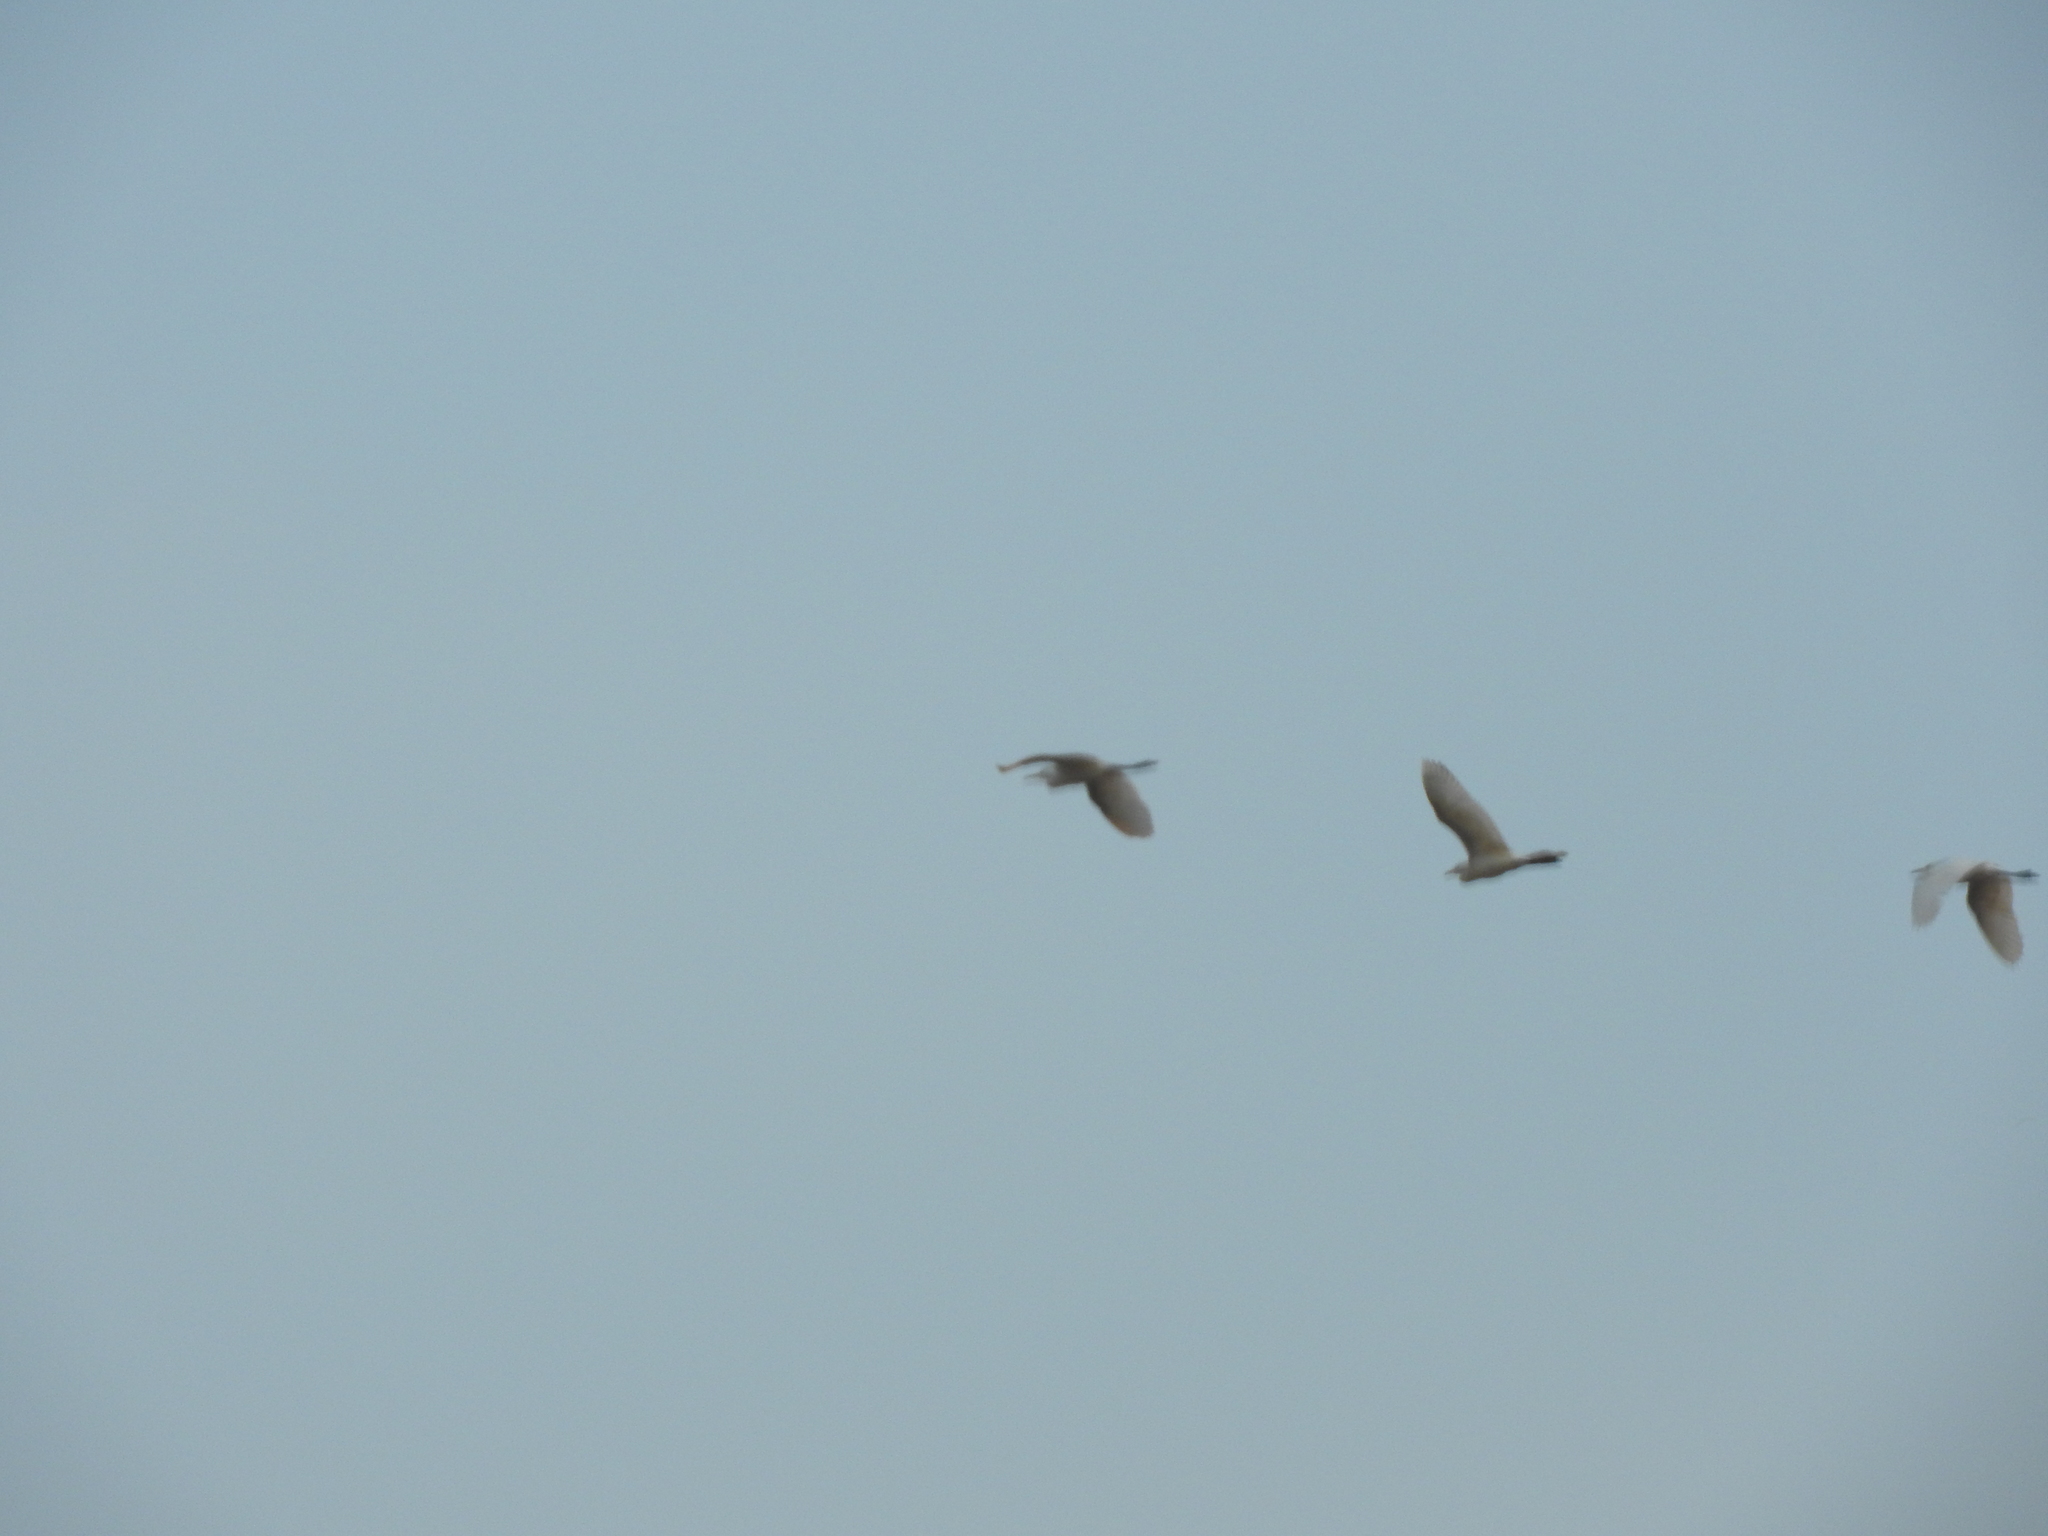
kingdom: Animalia
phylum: Chordata
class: Aves
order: Pelecaniformes
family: Ardeidae
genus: Bubulcus
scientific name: Bubulcus ibis
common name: Cattle egret
